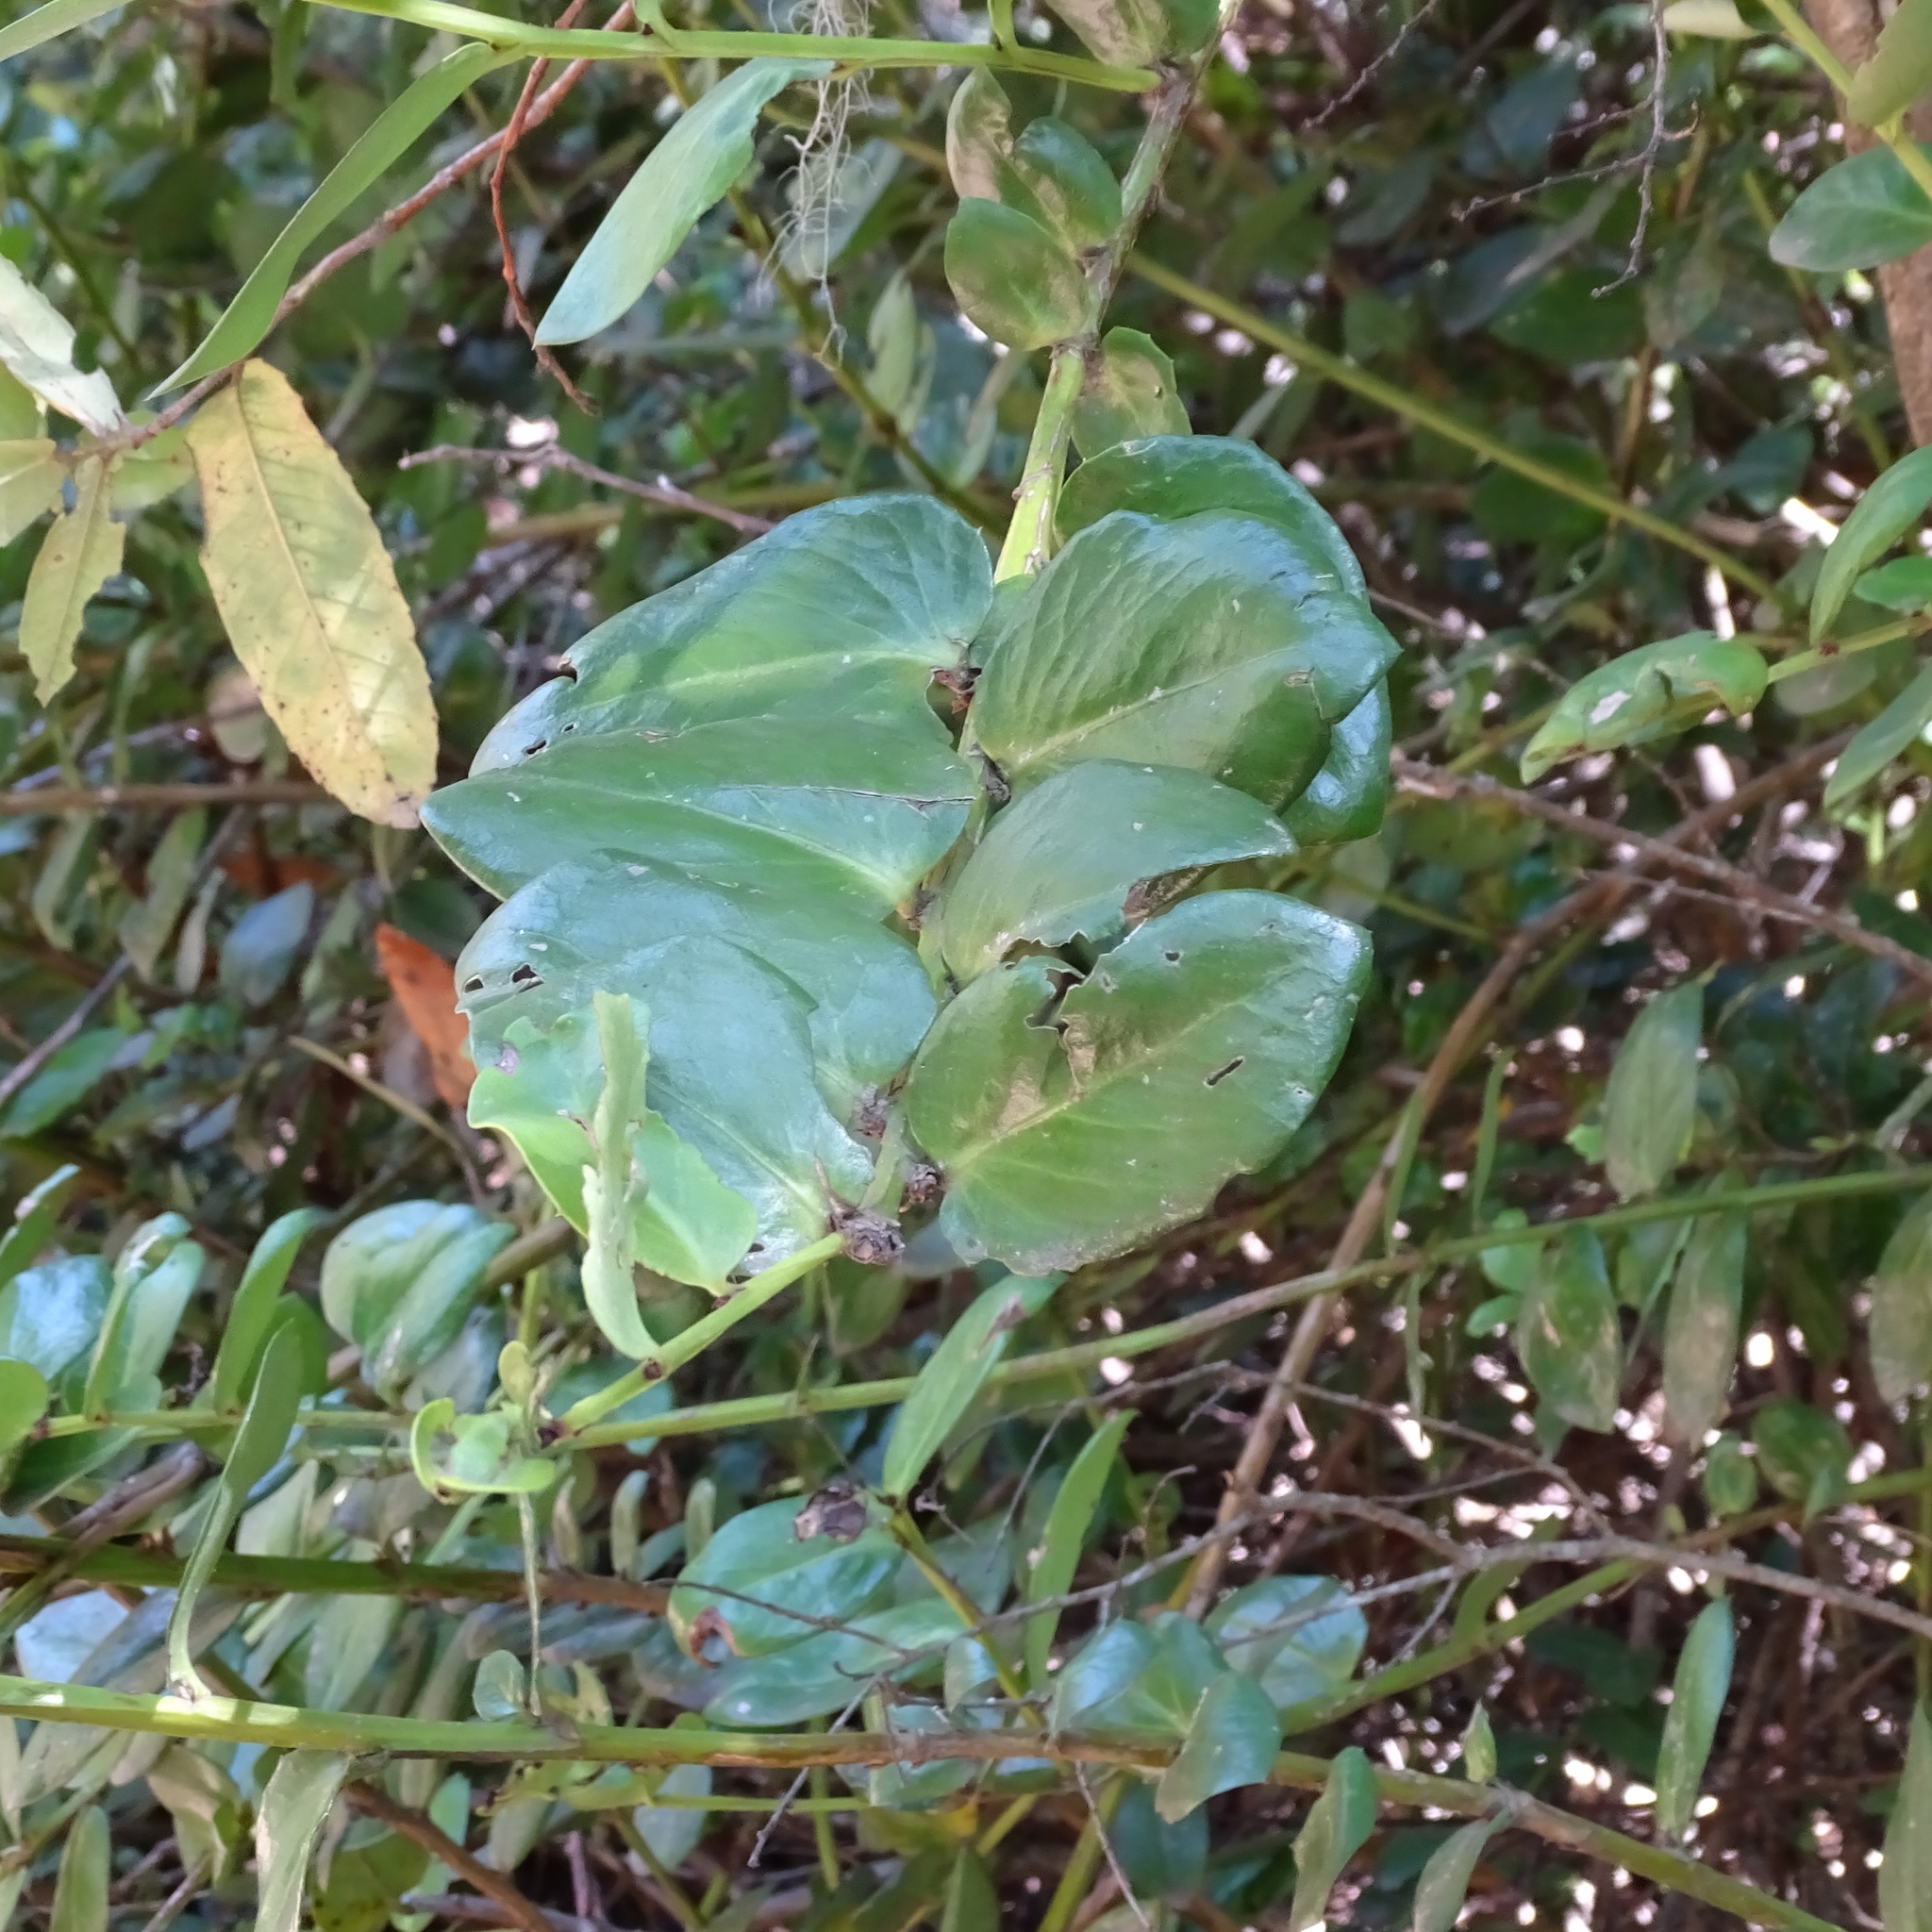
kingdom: Plantae
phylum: Tracheophyta
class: Magnoliopsida
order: Apiales
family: Griseliniaceae
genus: Griselinia
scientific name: Griselinia scandens
